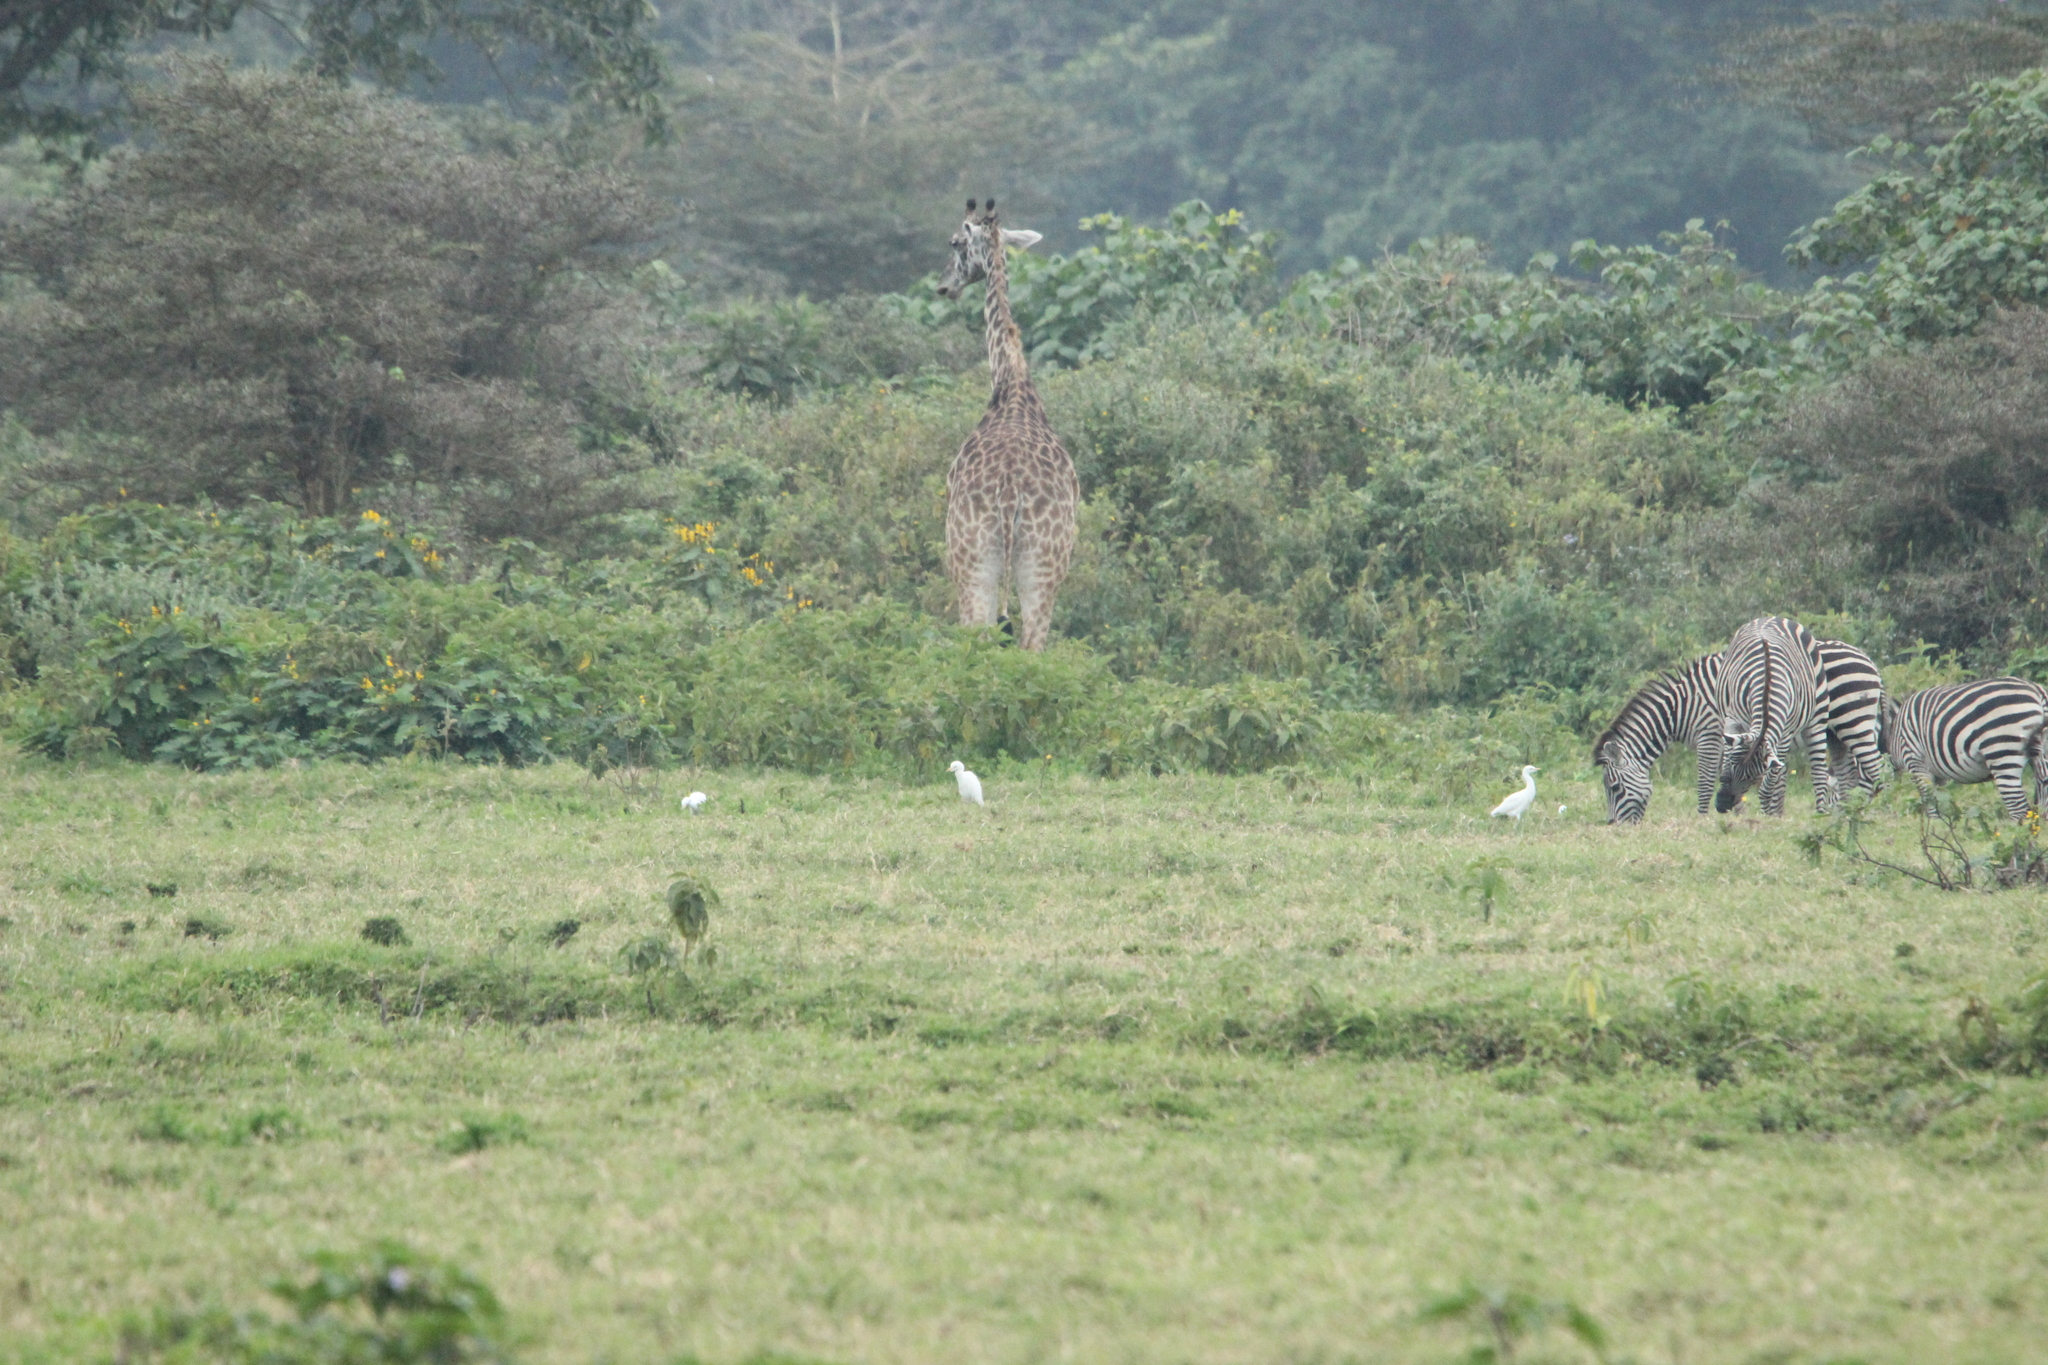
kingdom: Animalia
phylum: Chordata
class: Aves
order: Pelecaniformes
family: Ardeidae
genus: Bubulcus
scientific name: Bubulcus ibis
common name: Cattle egret
